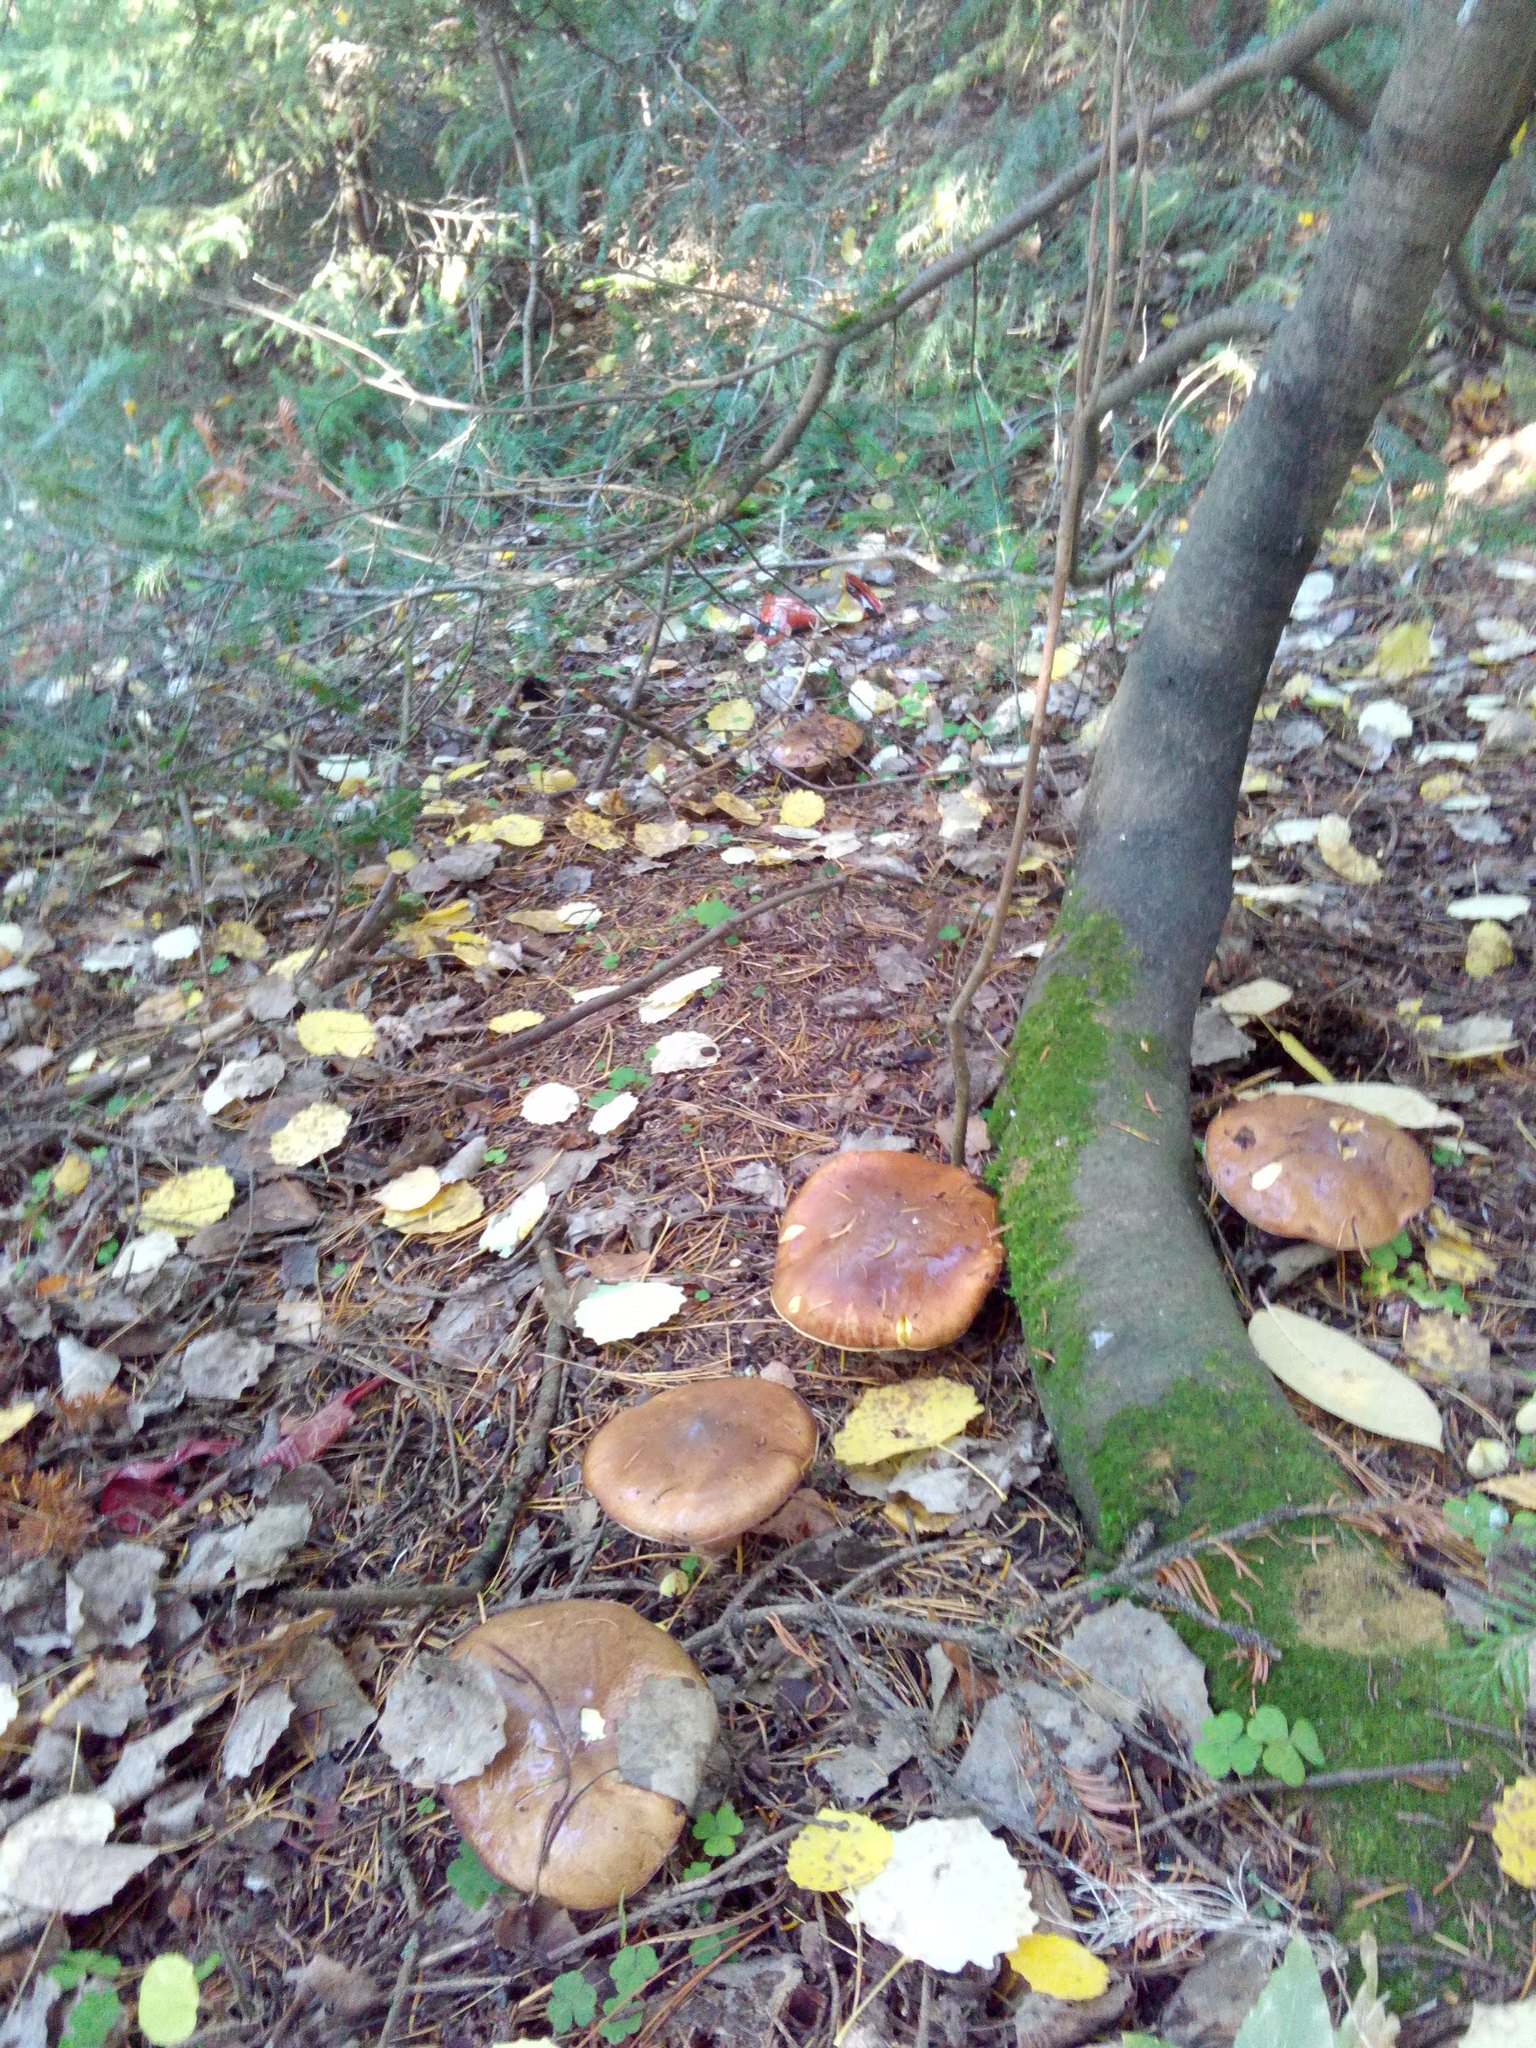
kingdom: Fungi
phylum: Basidiomycota
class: Agaricomycetes
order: Boletales
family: Suillaceae
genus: Suillus
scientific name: Suillus luteus
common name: Slippery jack
